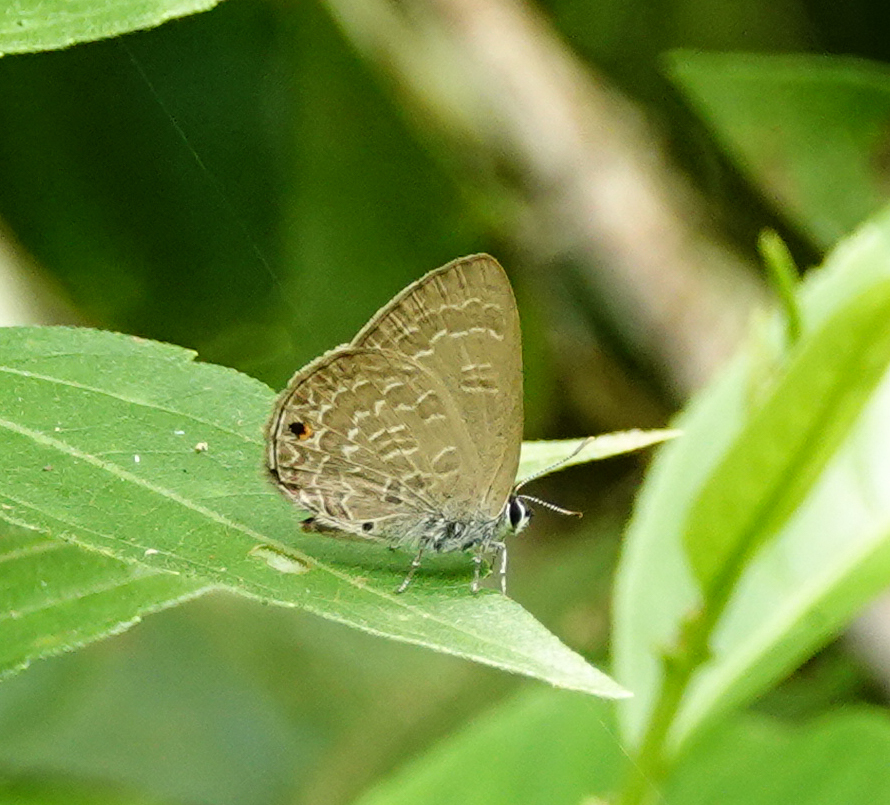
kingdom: Animalia
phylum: Arthropoda
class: Insecta
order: Lepidoptera
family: Lycaenidae
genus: Anthene
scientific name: Anthene emolus
